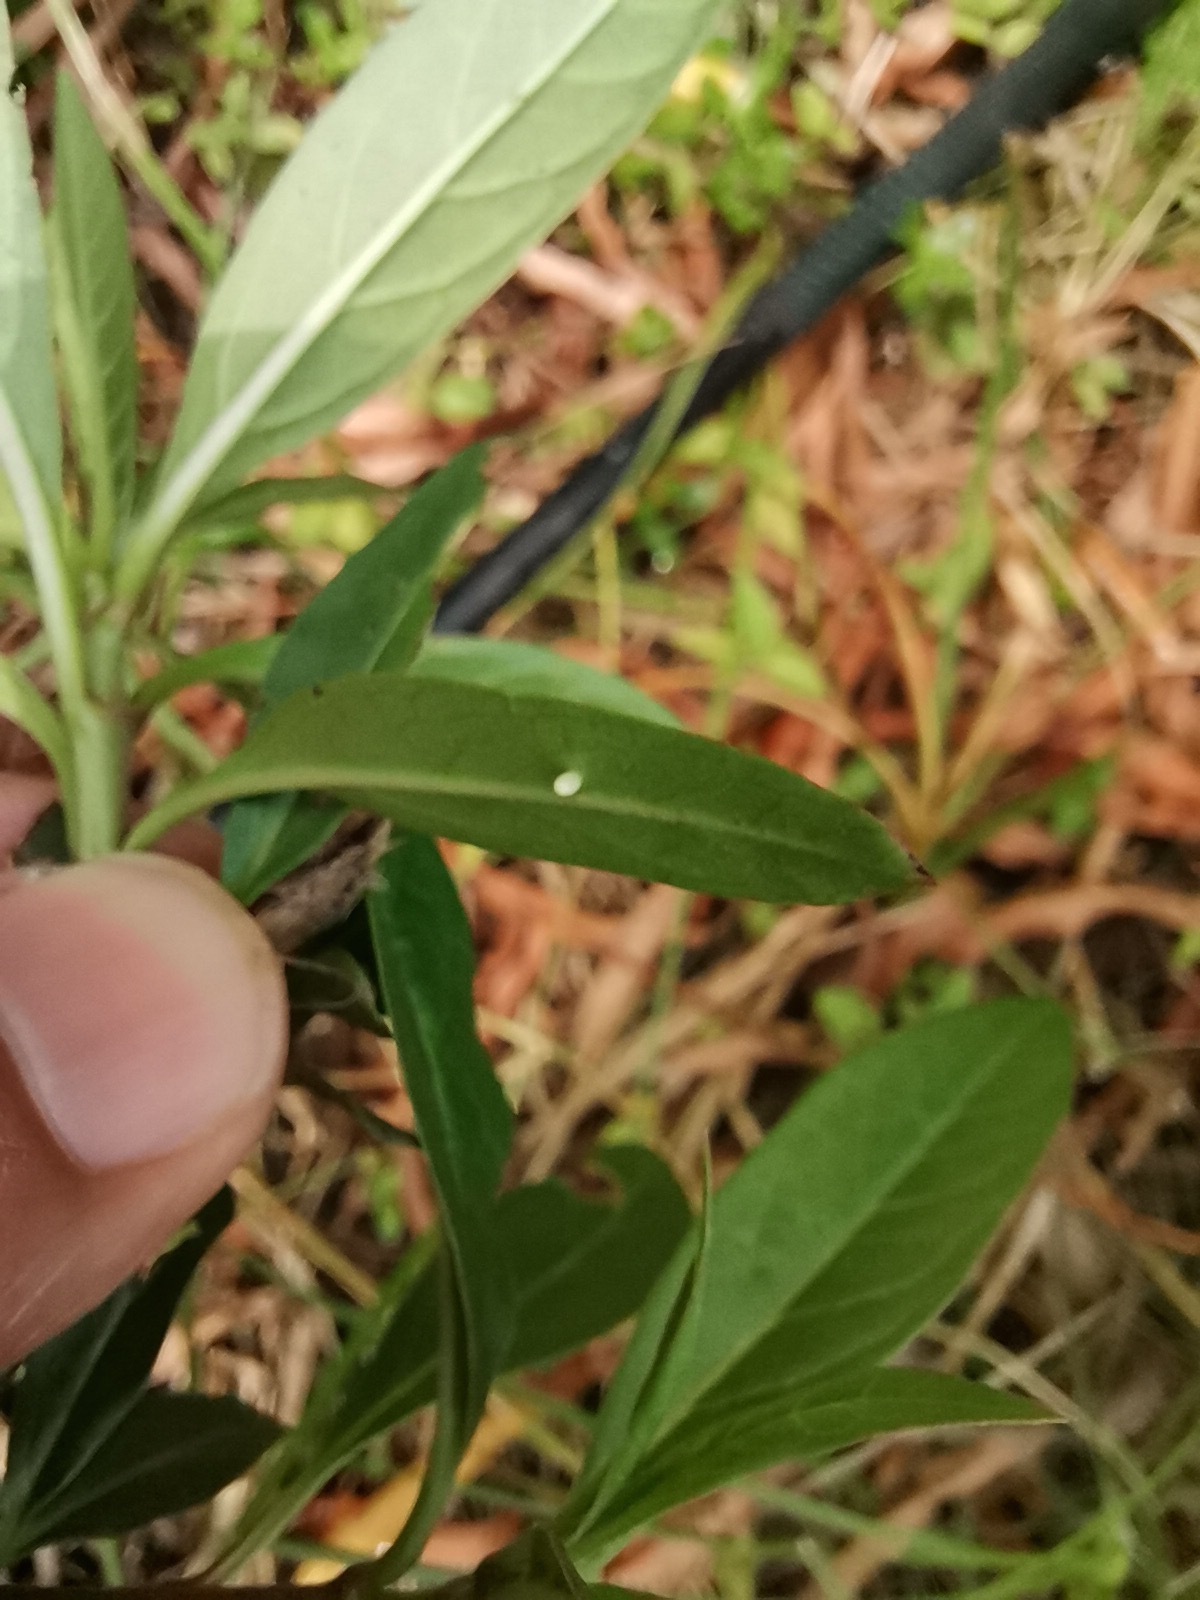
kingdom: Plantae
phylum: Tracheophyta
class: Magnoliopsida
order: Gentianales
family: Apocynaceae
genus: Asclepias
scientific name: Asclepias curassavica
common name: Bloodflower
